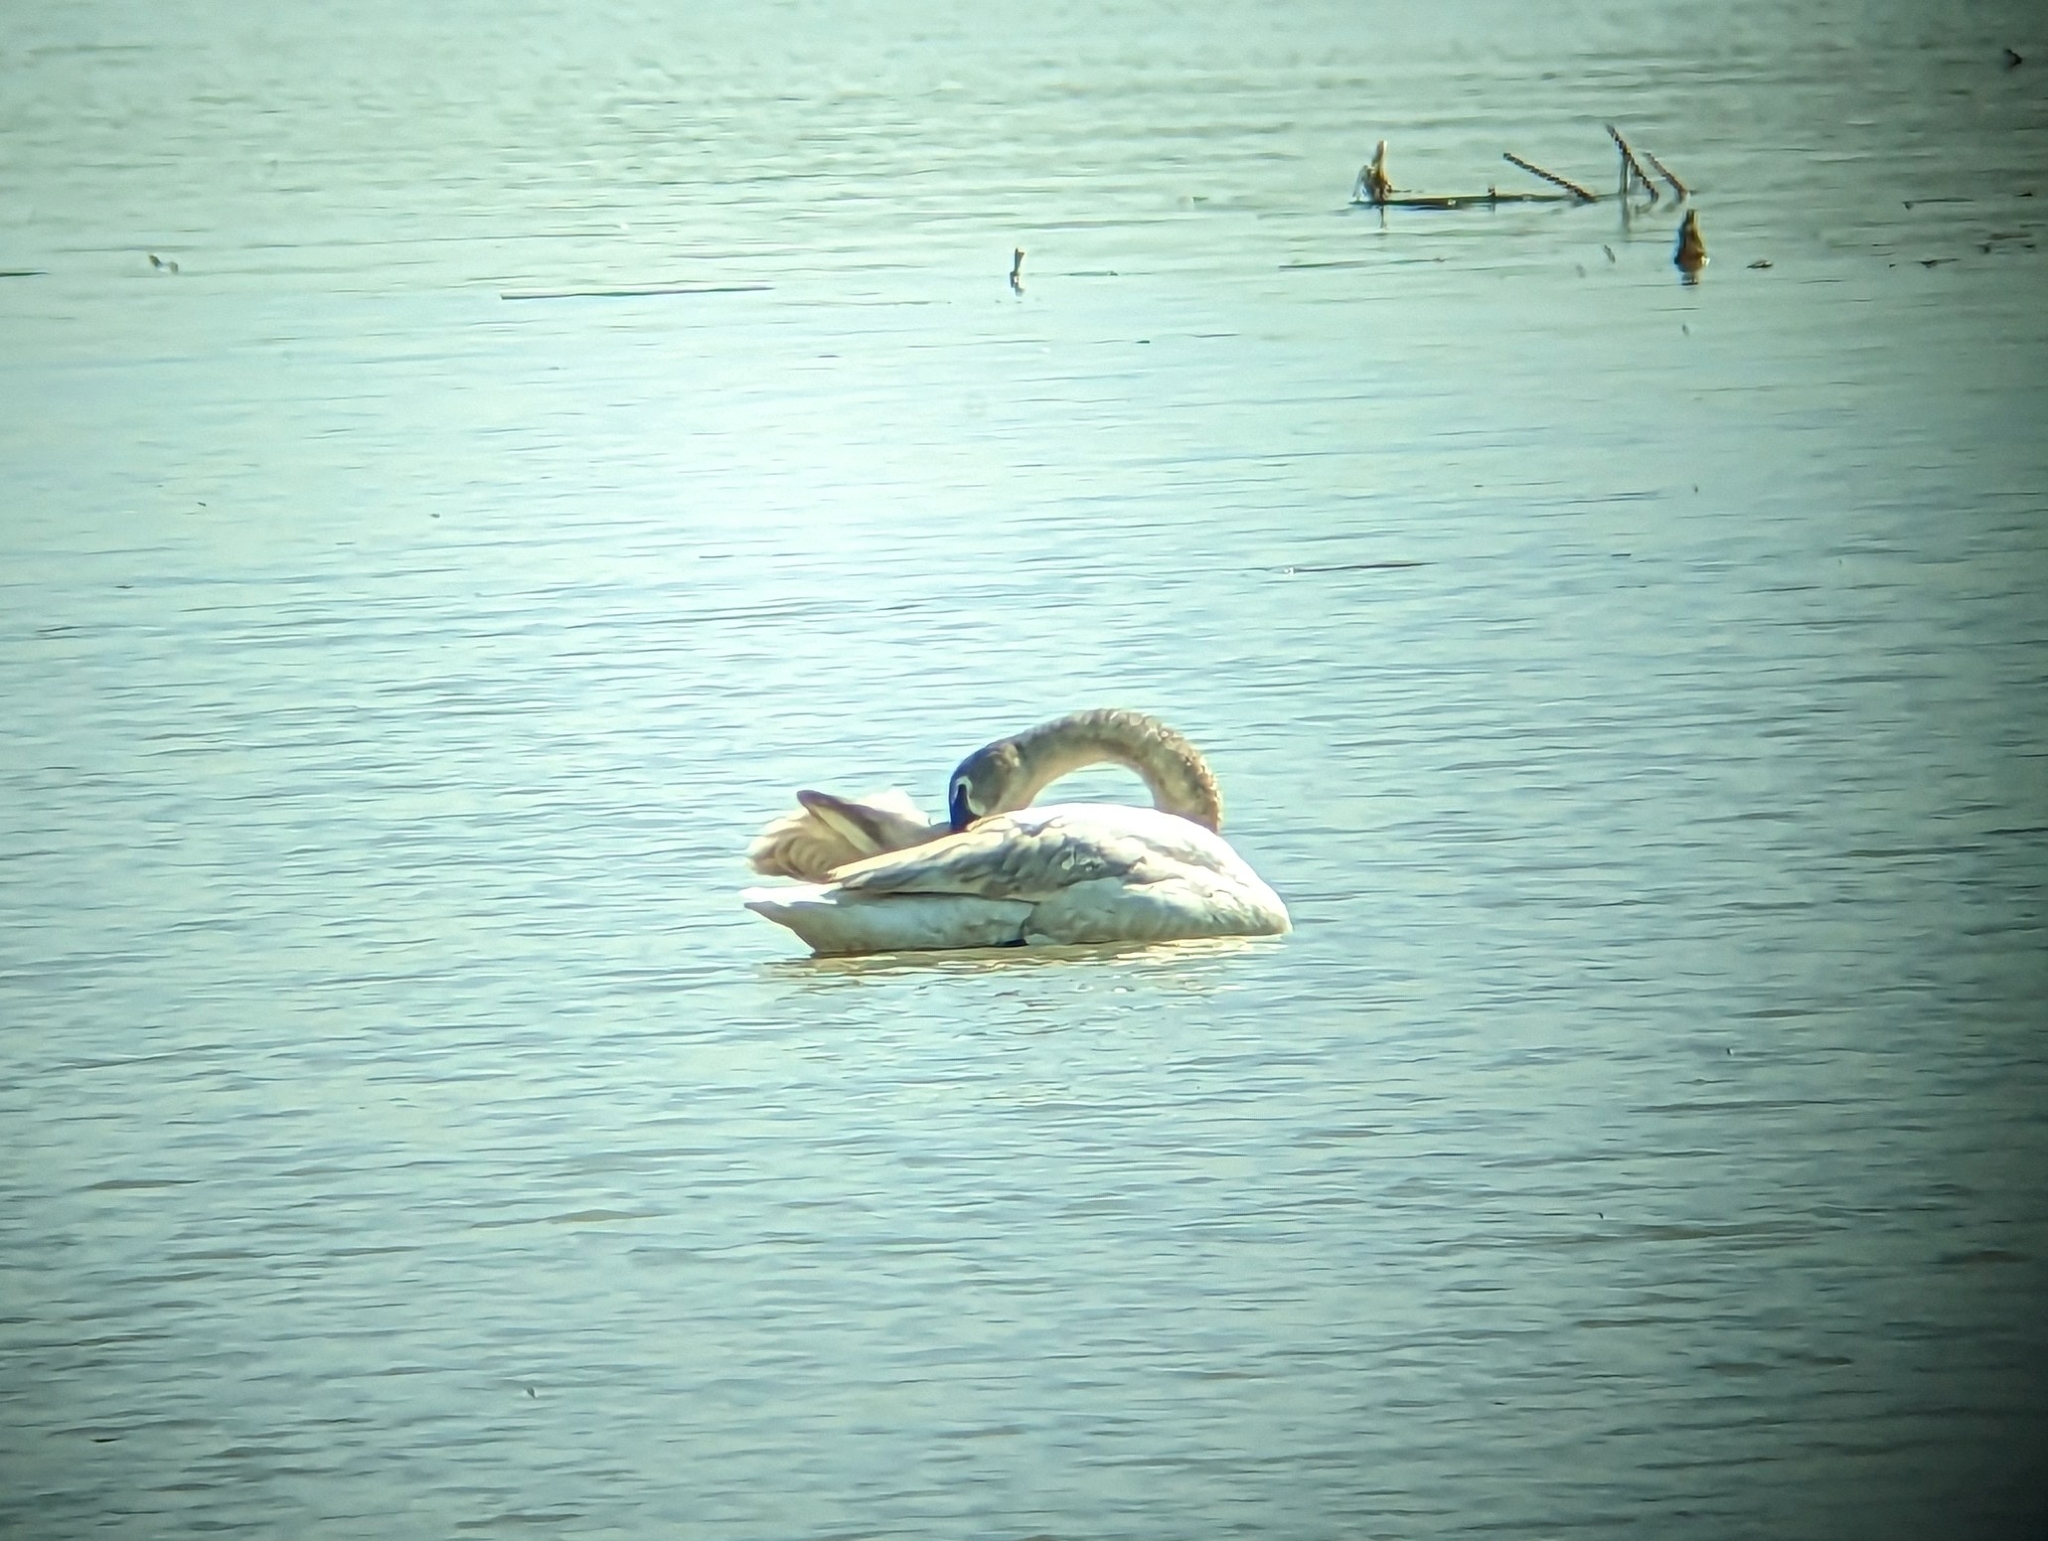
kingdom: Animalia
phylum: Chordata
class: Aves
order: Anseriformes
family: Anatidae
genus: Cygnus
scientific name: Cygnus buccinator
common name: Trumpeter swan
